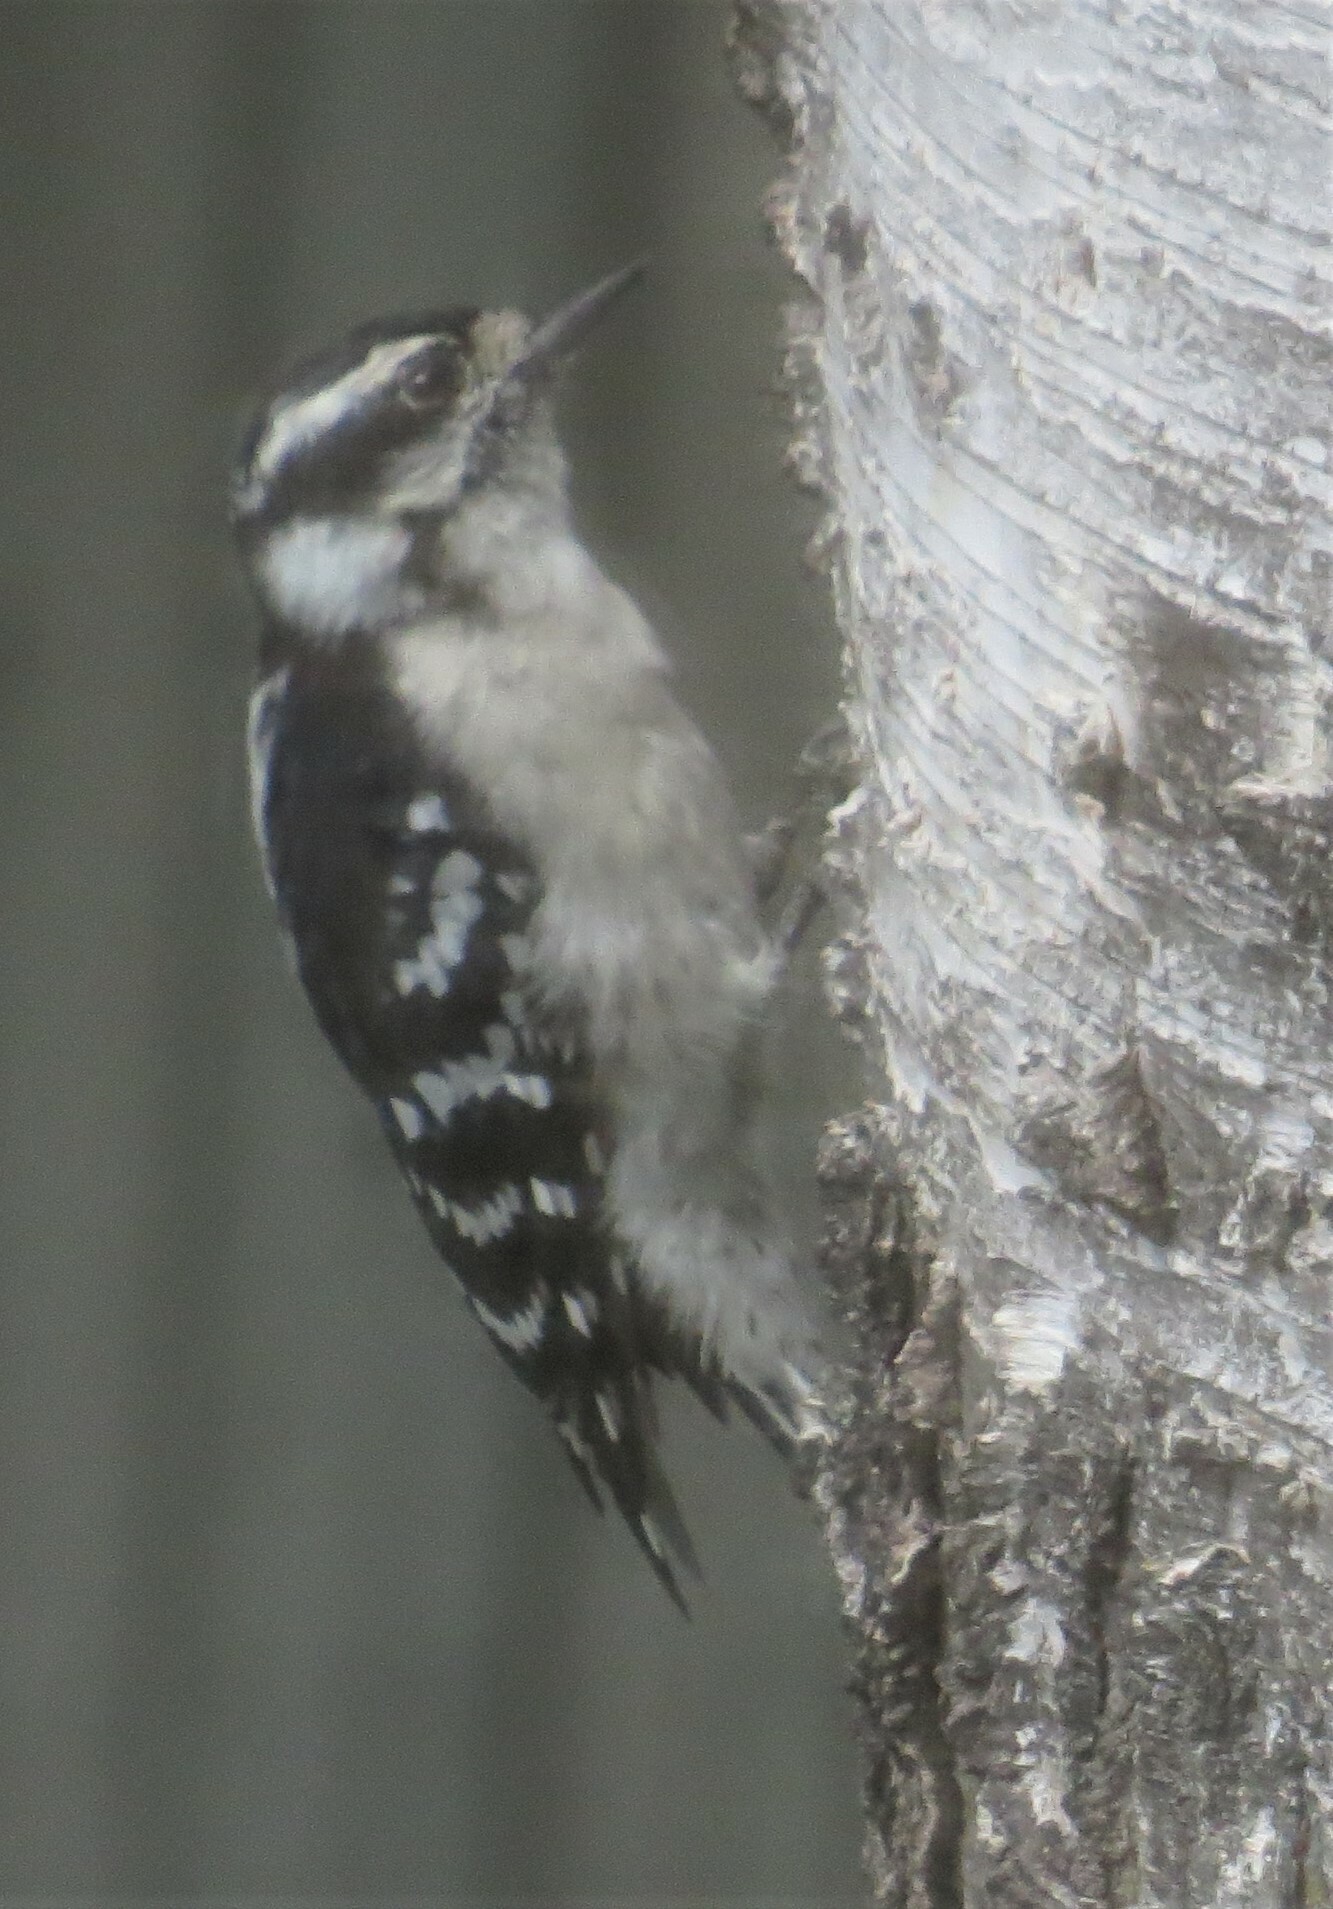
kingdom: Animalia
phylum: Chordata
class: Aves
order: Piciformes
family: Picidae
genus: Dryobates
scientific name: Dryobates pubescens
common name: Downy woodpecker
